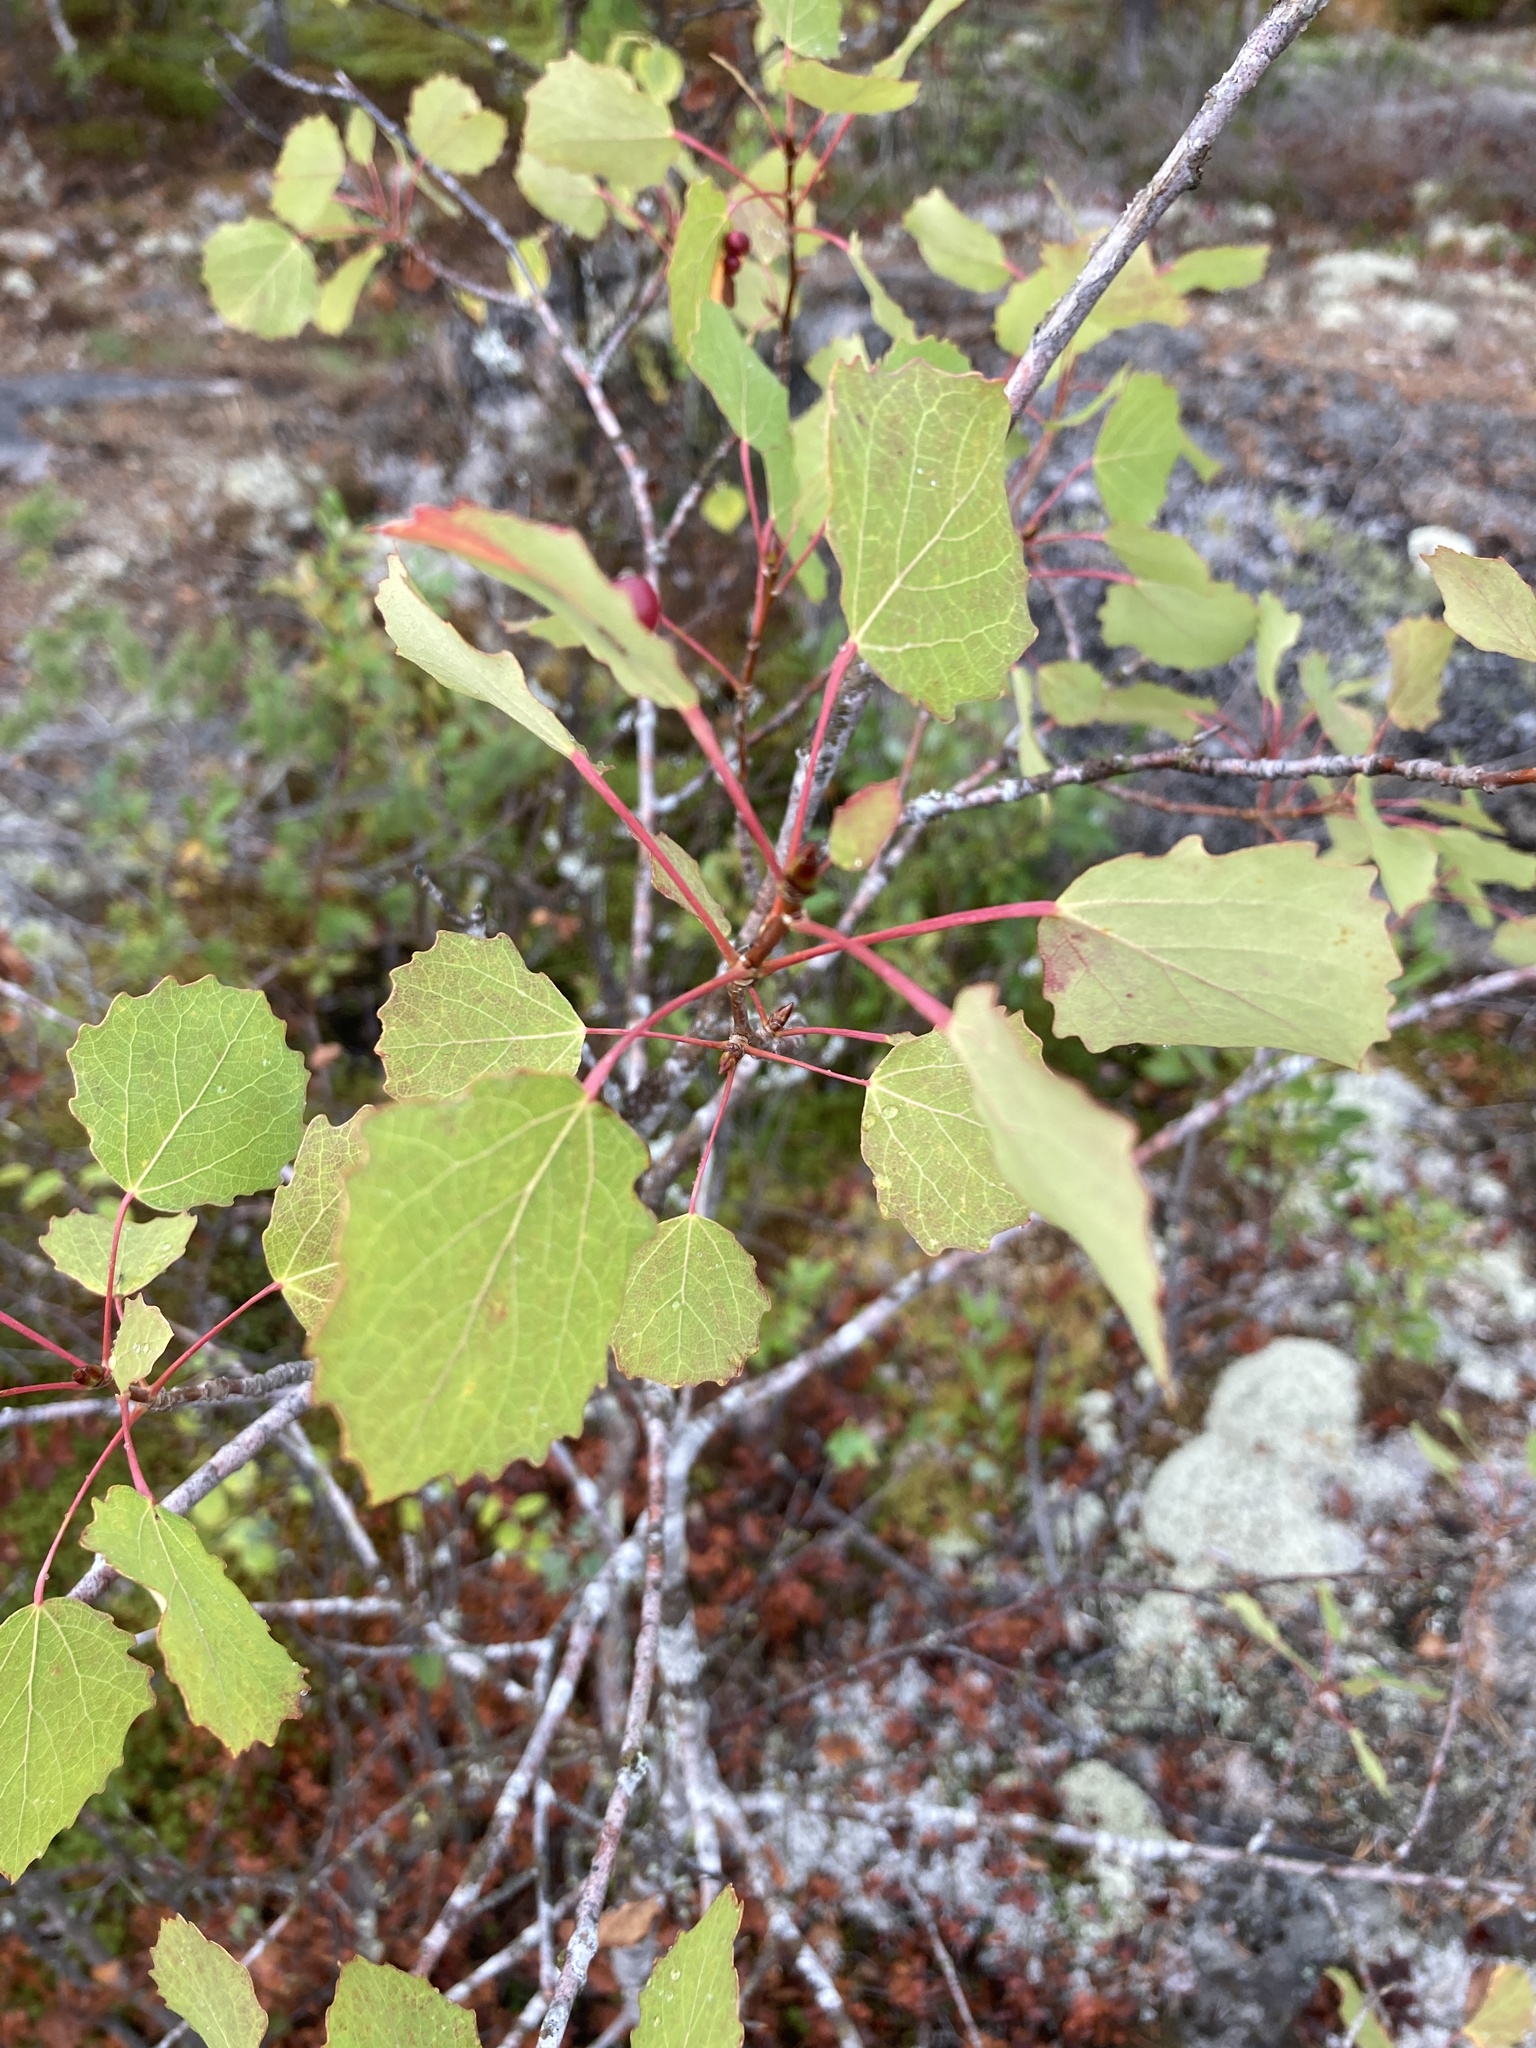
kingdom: Plantae
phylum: Tracheophyta
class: Magnoliopsida
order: Malpighiales
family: Salicaceae
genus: Populus
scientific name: Populus tremula
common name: European aspen
